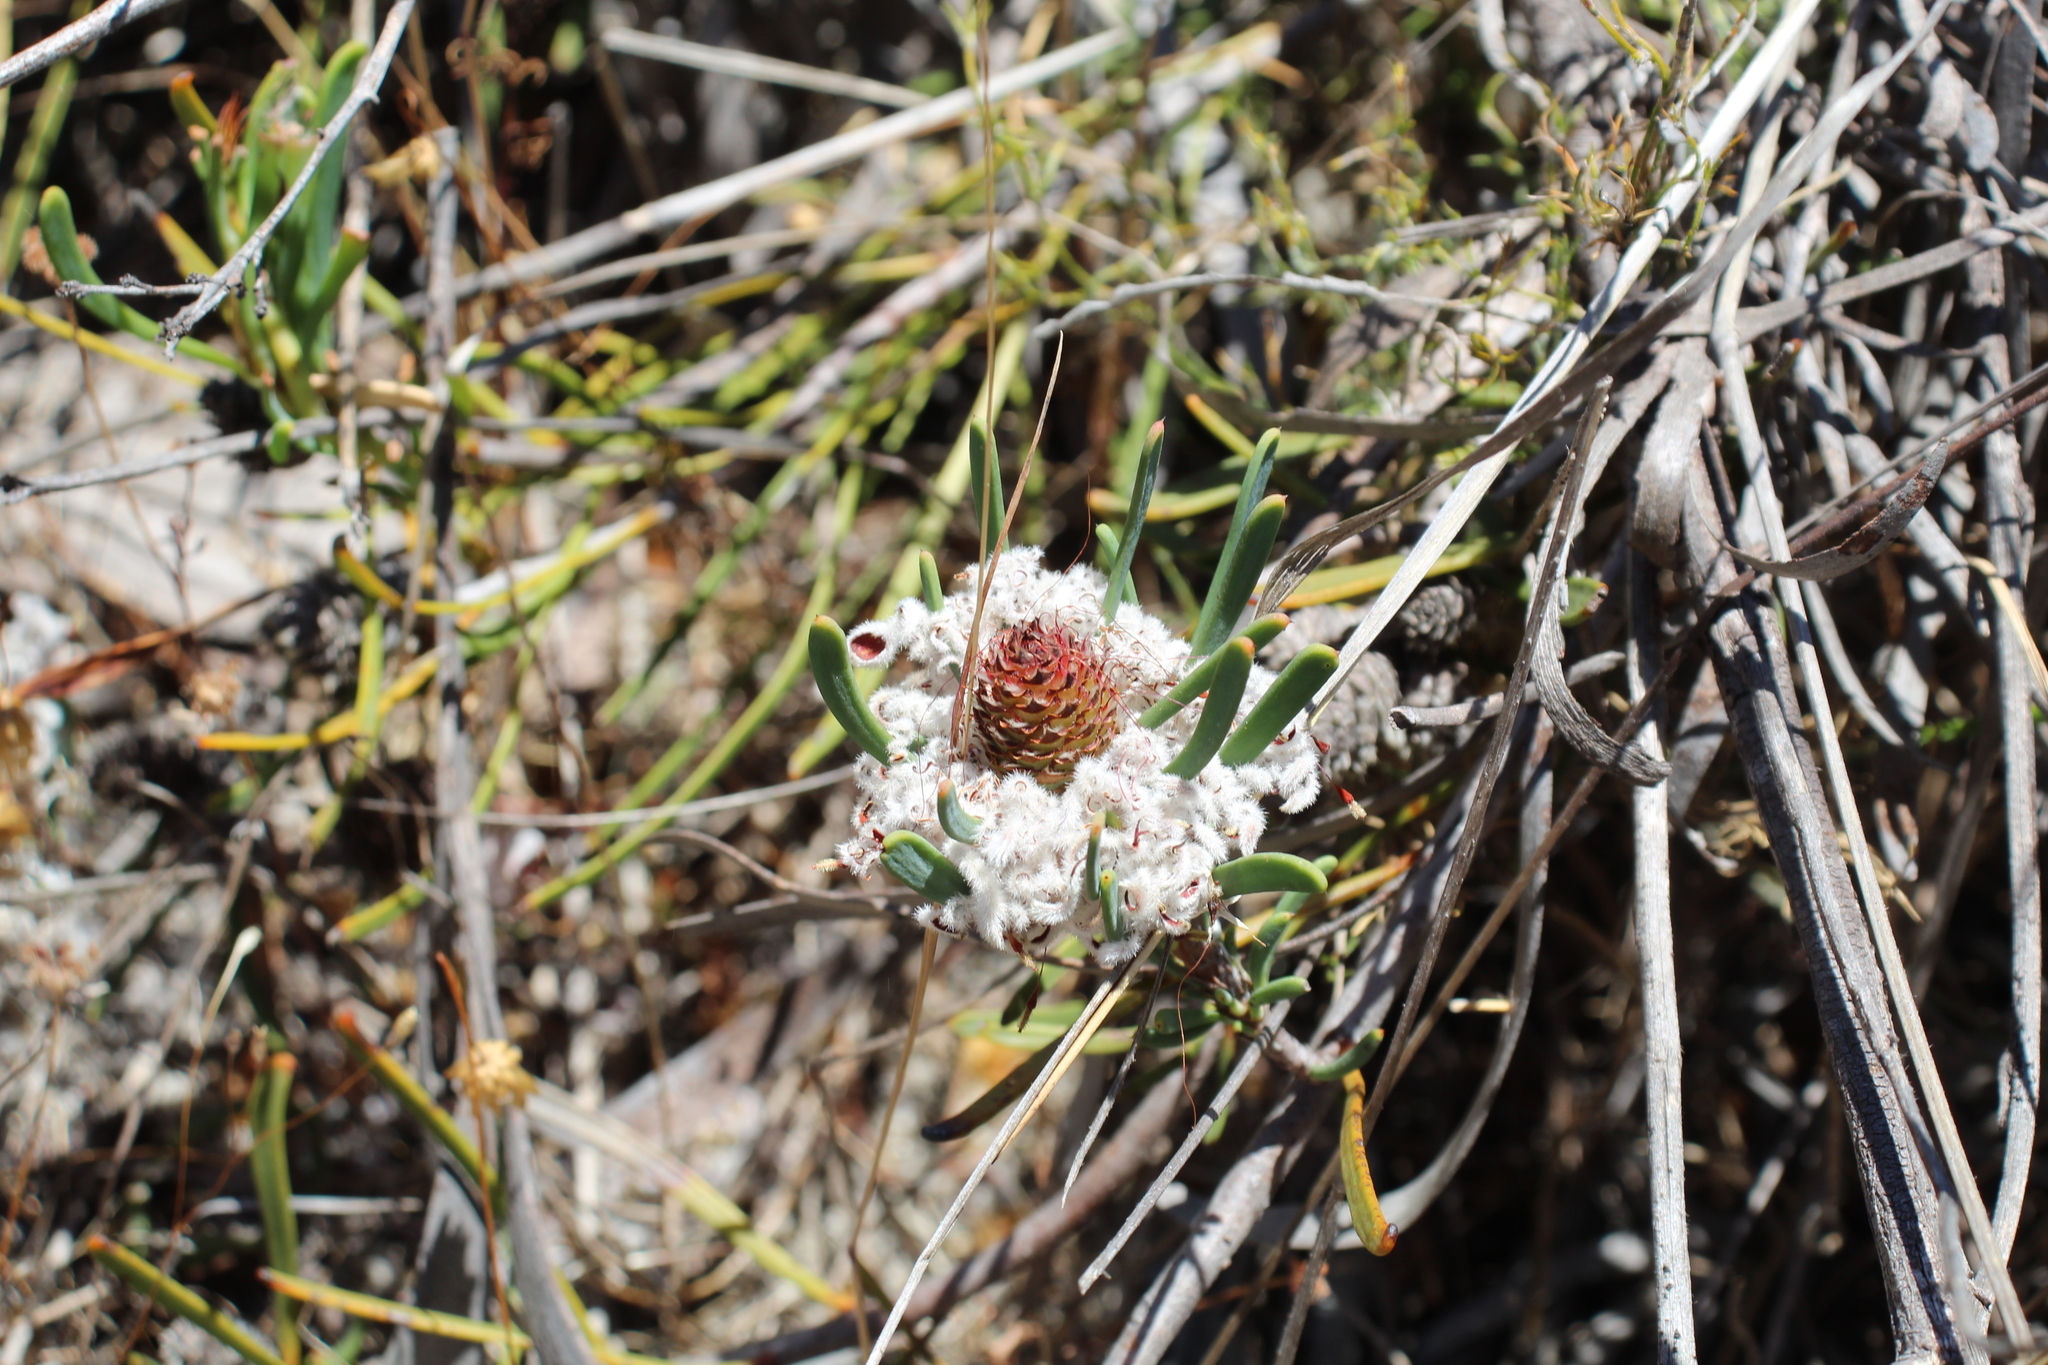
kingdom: Plantae
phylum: Tracheophyta
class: Magnoliopsida
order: Proteales
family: Proteaceae
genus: Petrophile
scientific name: Petrophile linearis
